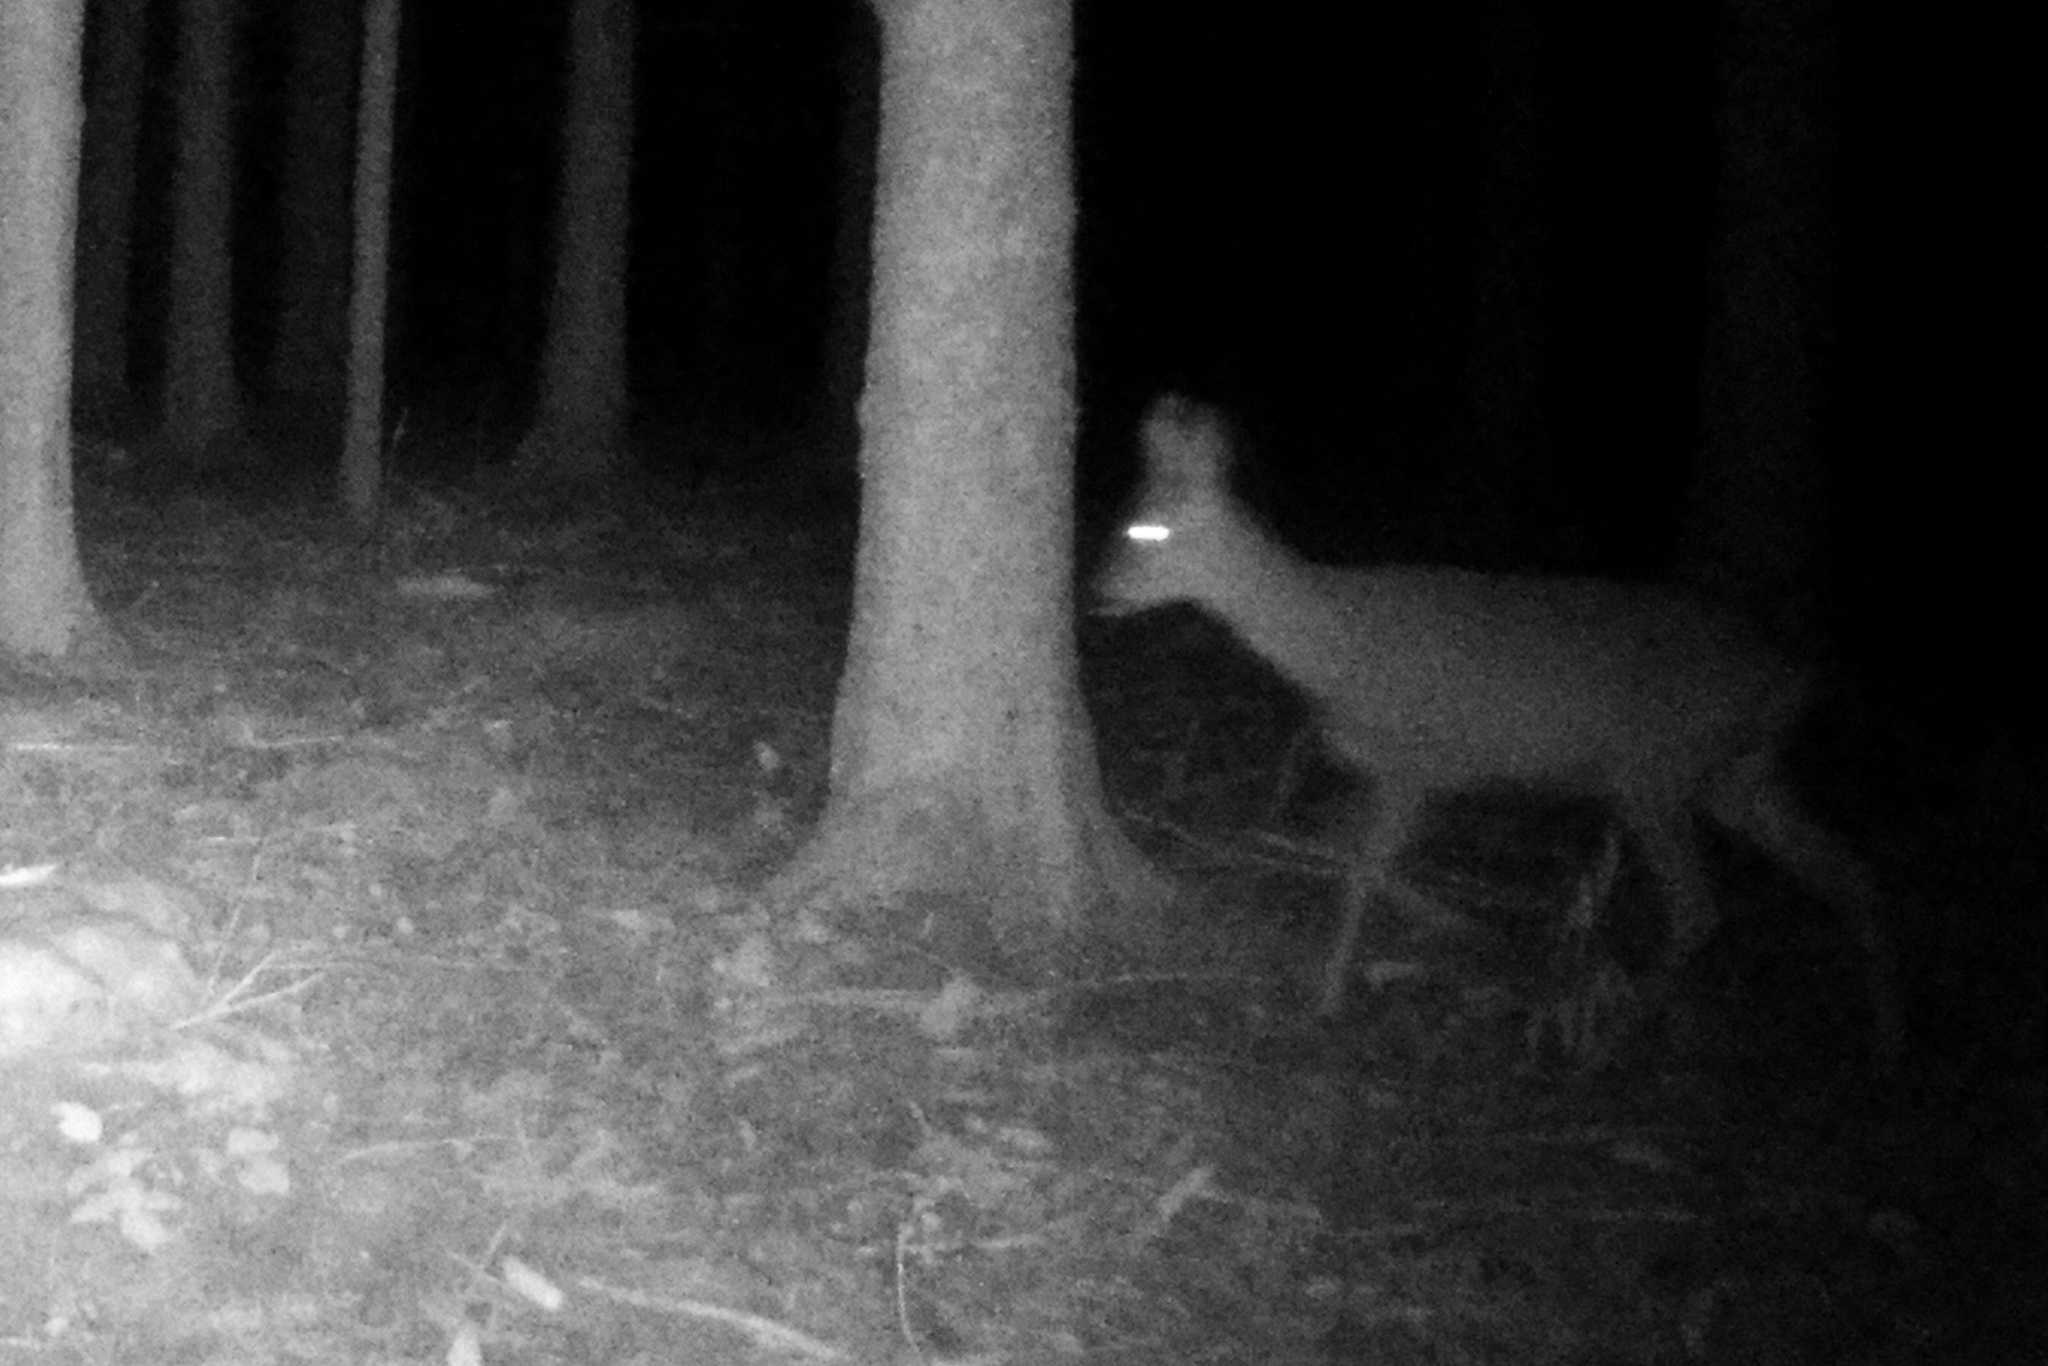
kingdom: Animalia
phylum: Chordata
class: Mammalia
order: Artiodactyla
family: Cervidae
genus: Capreolus
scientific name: Capreolus capreolus
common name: Western roe deer
